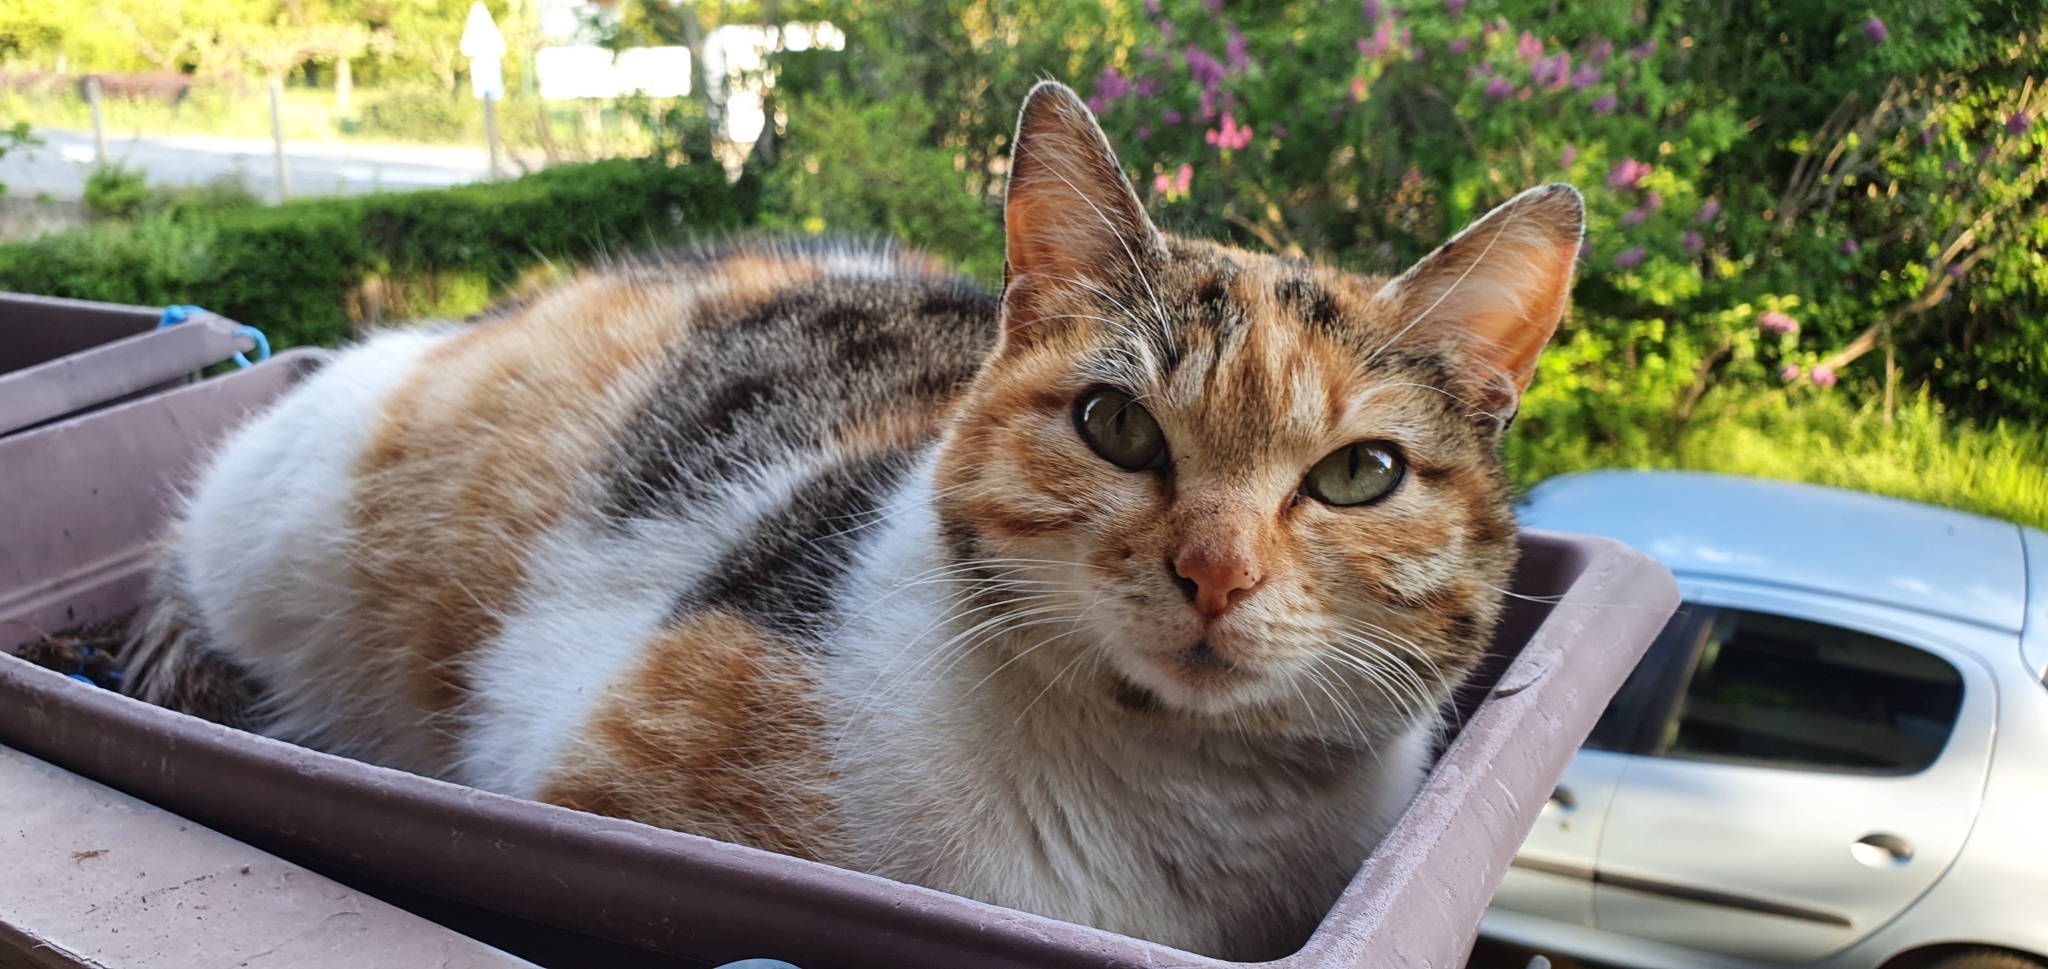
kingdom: Animalia
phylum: Chordata
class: Mammalia
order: Carnivora
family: Felidae
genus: Felis
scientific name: Felis catus
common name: Domestic cat
